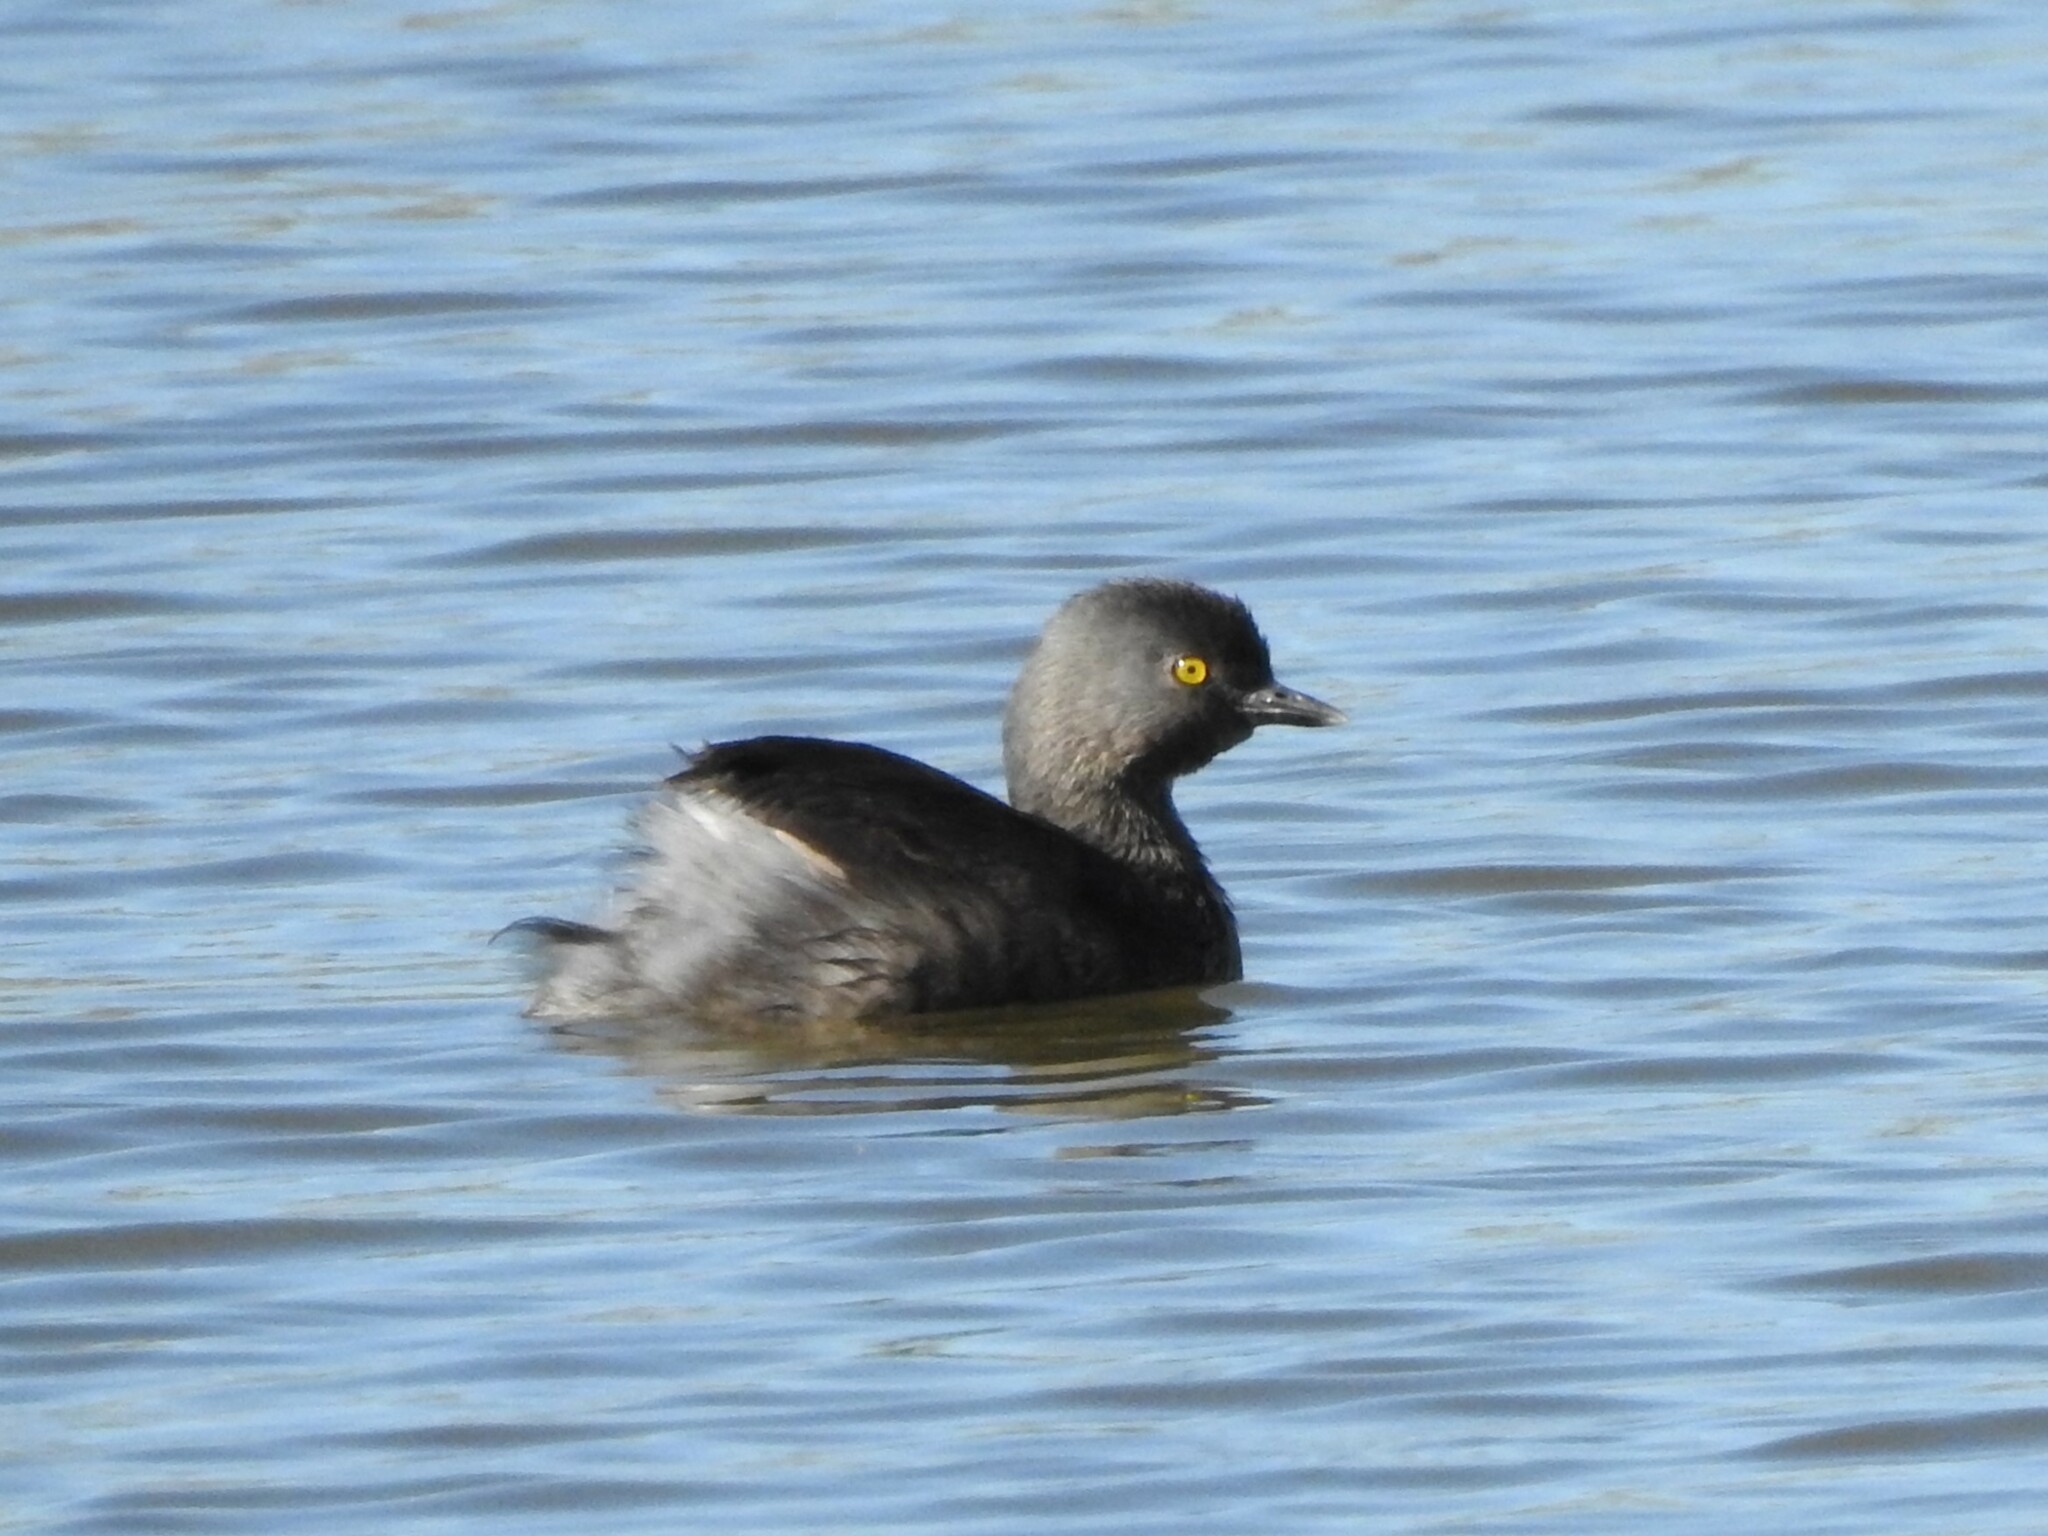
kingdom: Animalia
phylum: Chordata
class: Aves
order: Podicipediformes
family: Podicipedidae
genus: Tachybaptus
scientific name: Tachybaptus dominicus
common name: Least grebe
